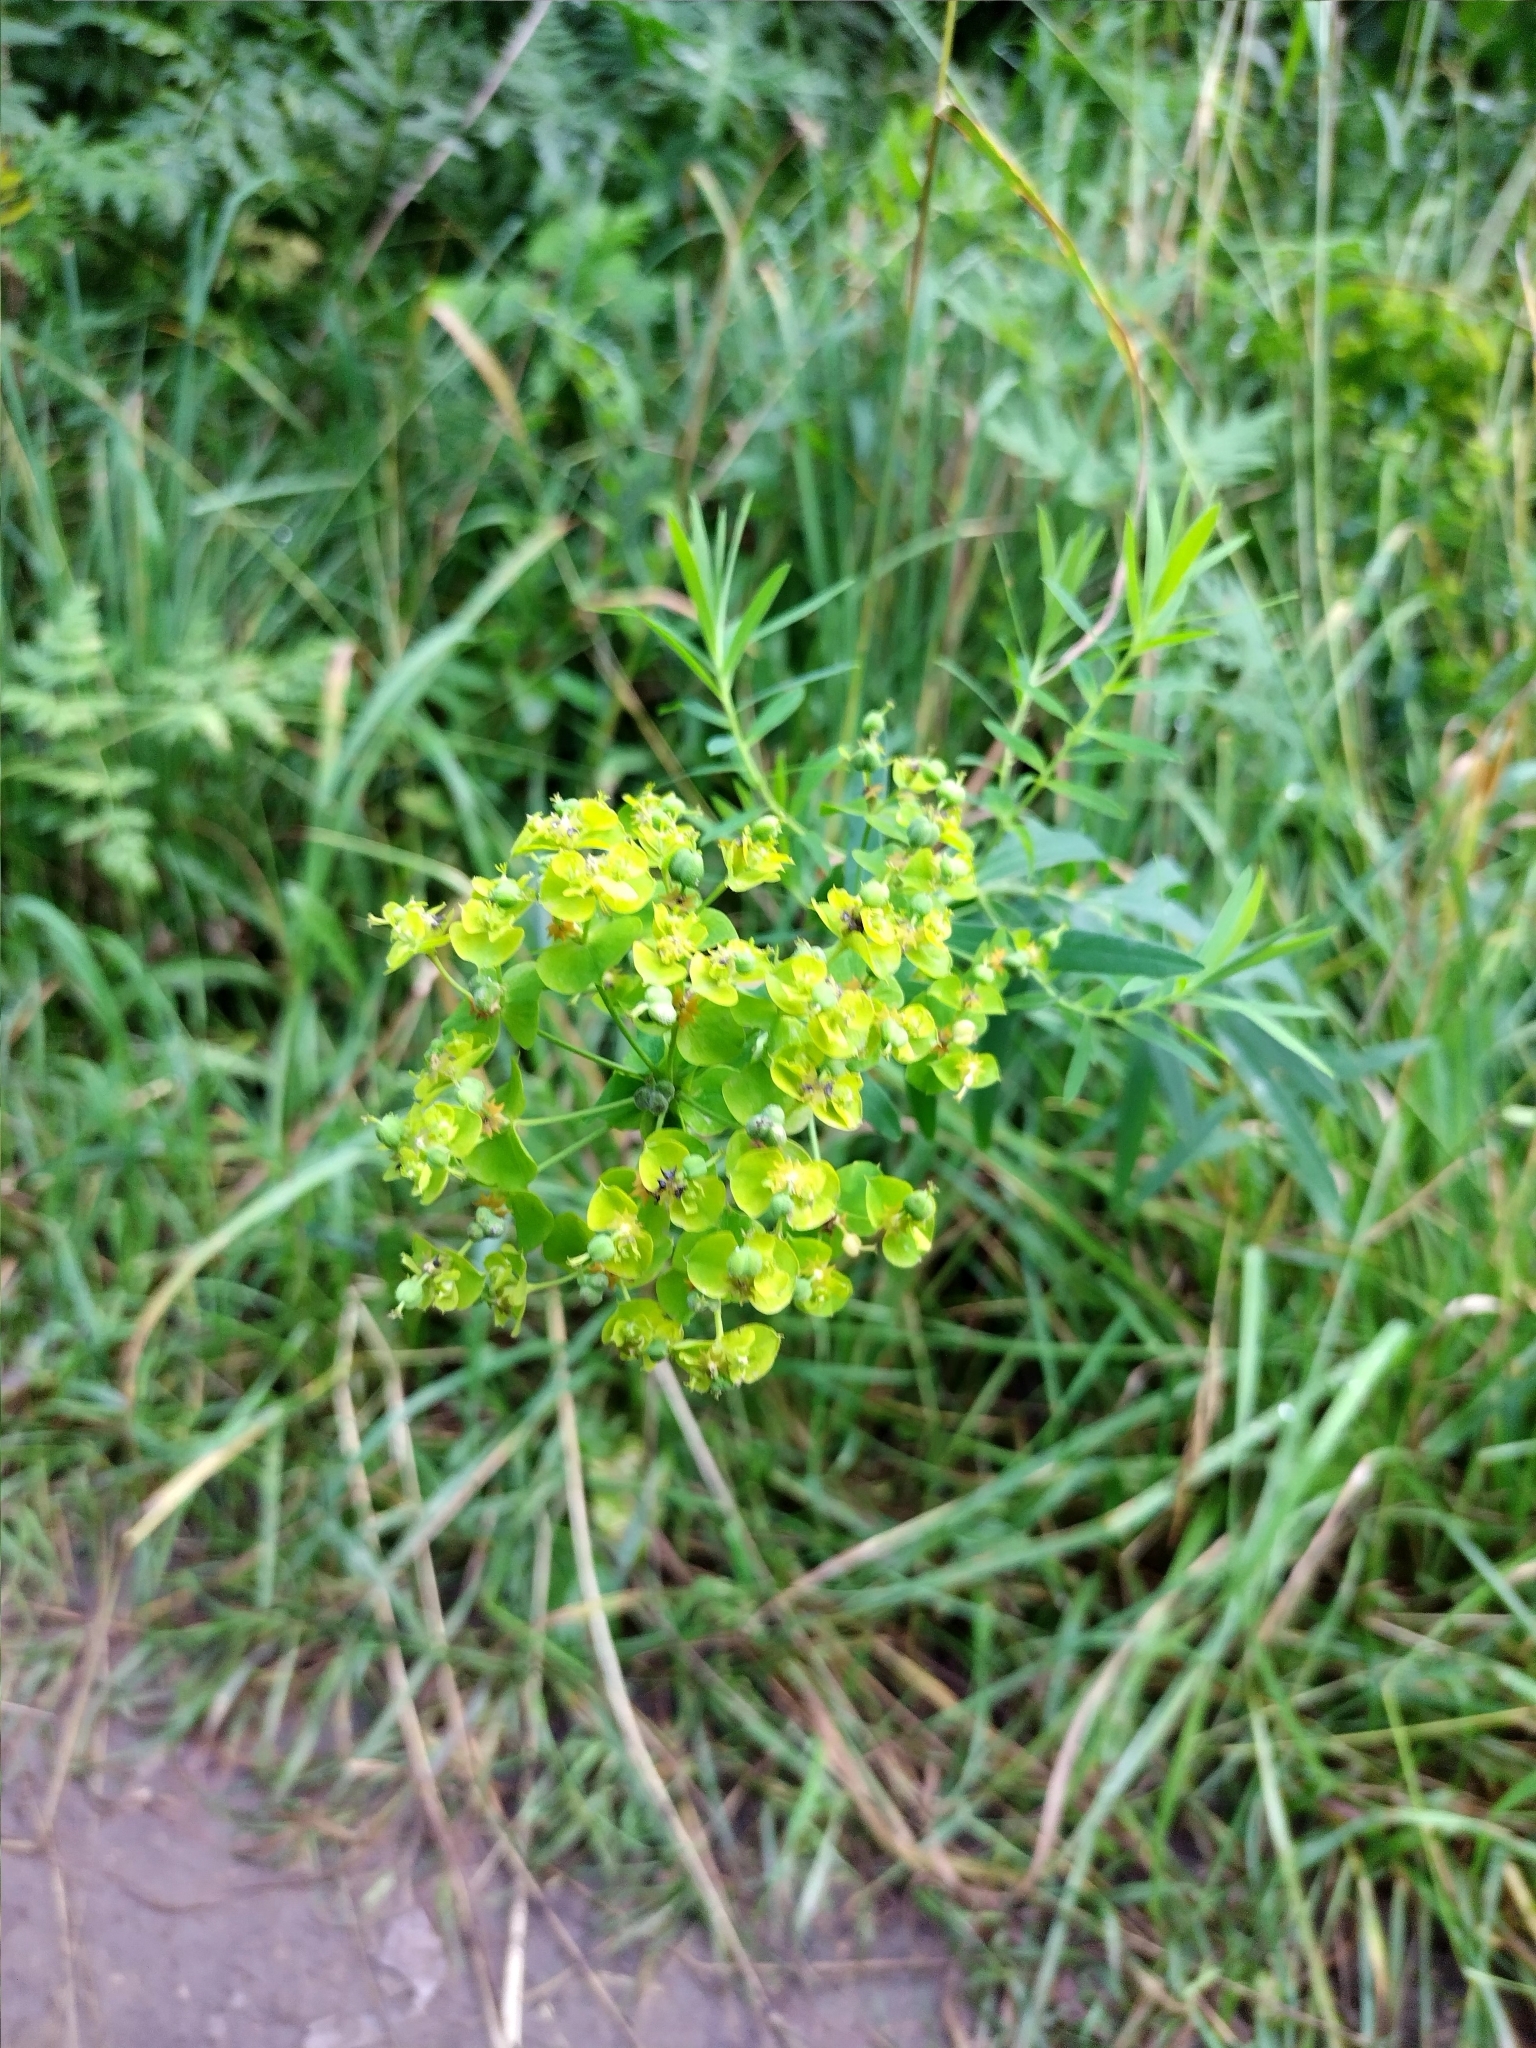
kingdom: Plantae
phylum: Tracheophyta
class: Magnoliopsida
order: Malpighiales
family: Euphorbiaceae
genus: Euphorbia
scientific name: Euphorbia virgata
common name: Leafy spurge
